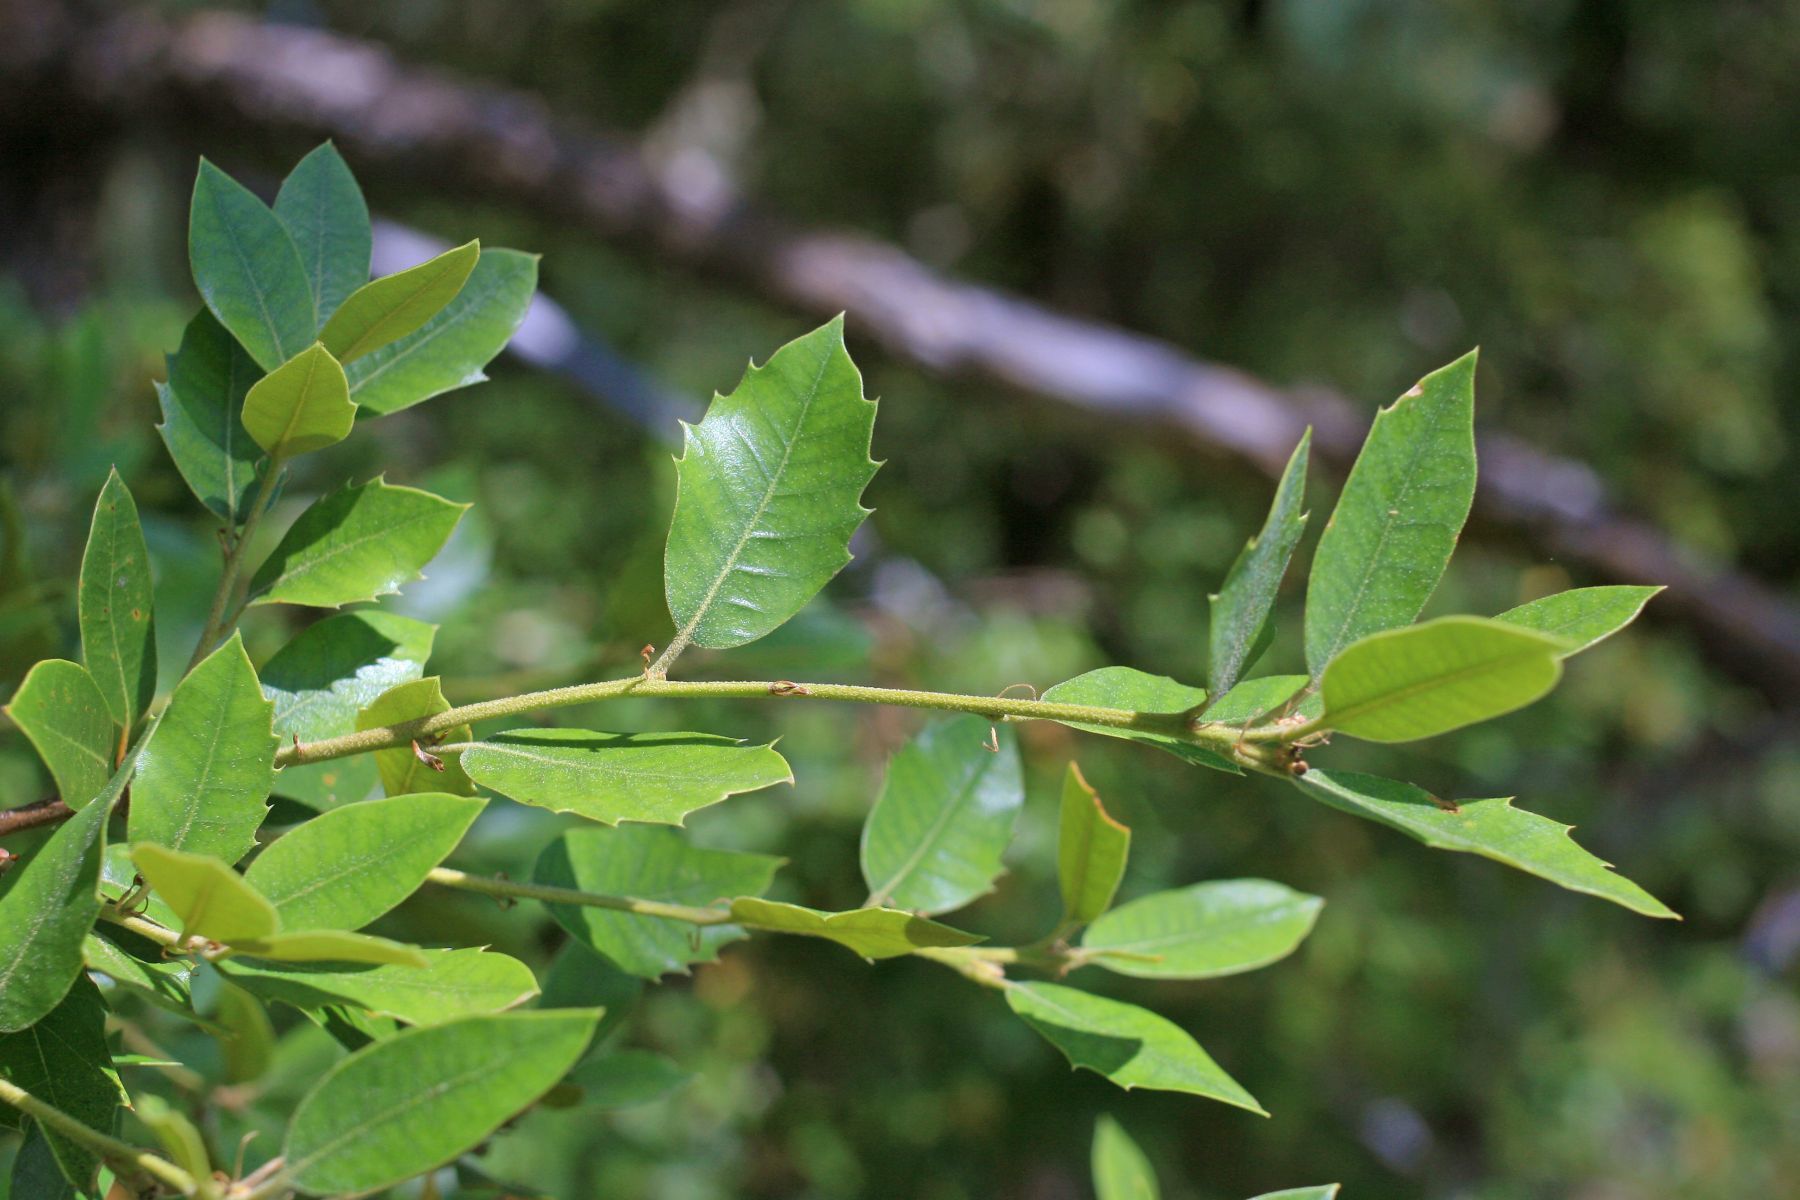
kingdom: Plantae
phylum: Tracheophyta
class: Magnoliopsida
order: Fagales
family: Fagaceae
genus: Quercus
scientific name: Quercus chrysolepis
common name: Canyon live oak
